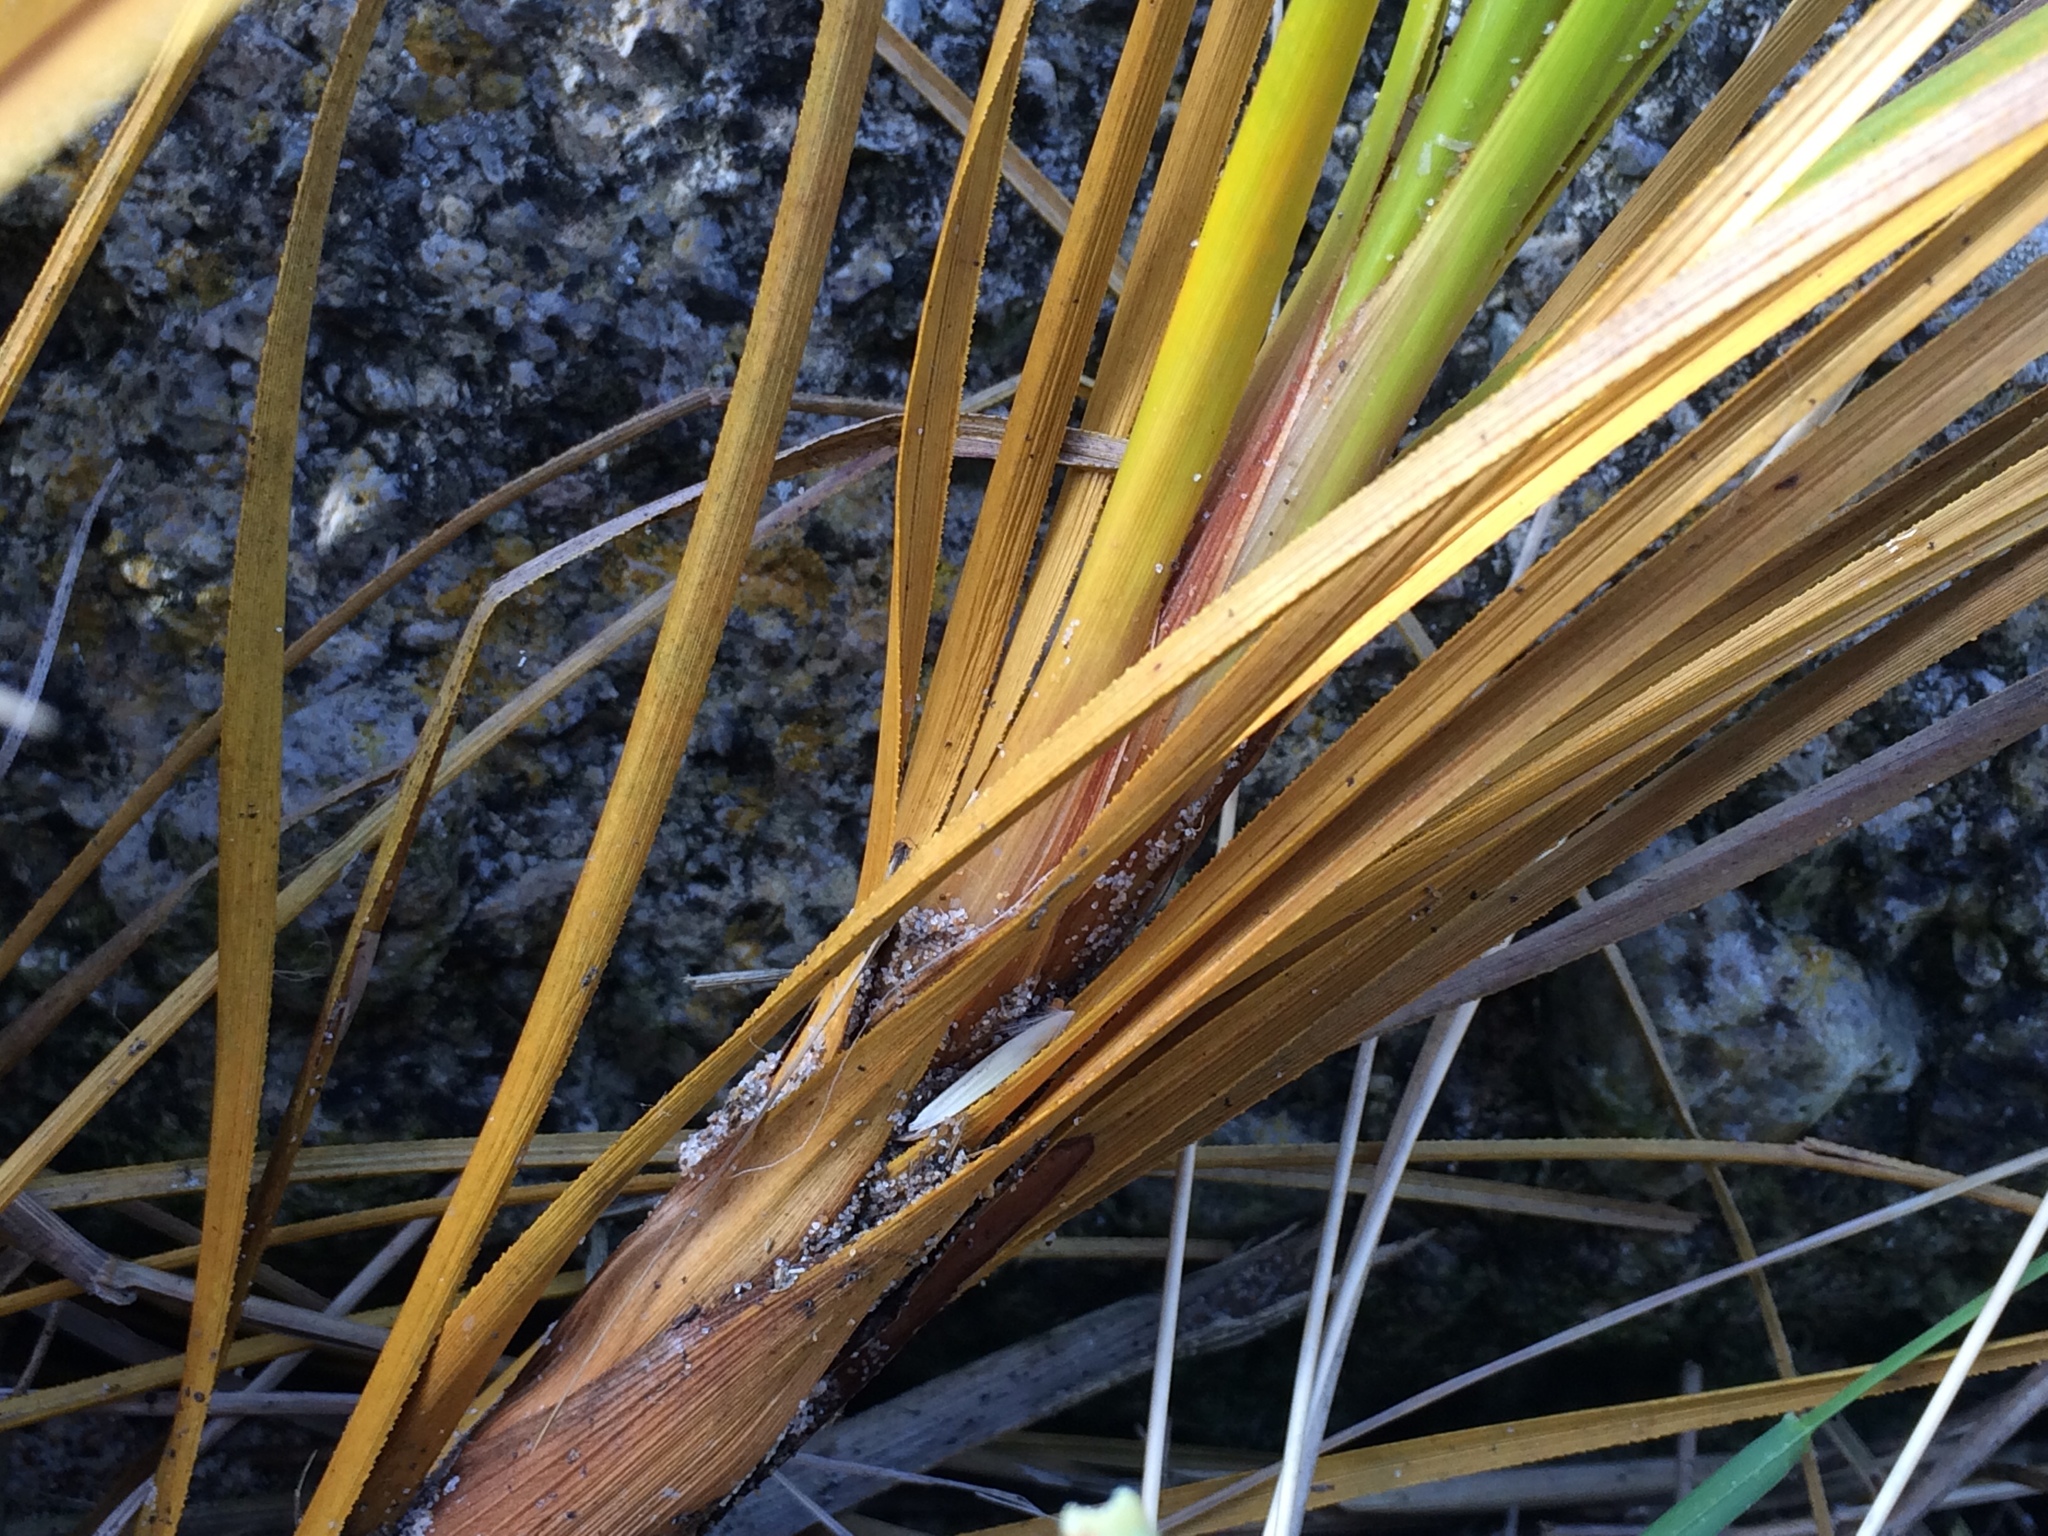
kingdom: Plantae
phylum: Tracheophyta
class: Liliopsida
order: Poales
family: Cyperaceae
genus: Ficinia
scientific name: Ficinia spiralis
